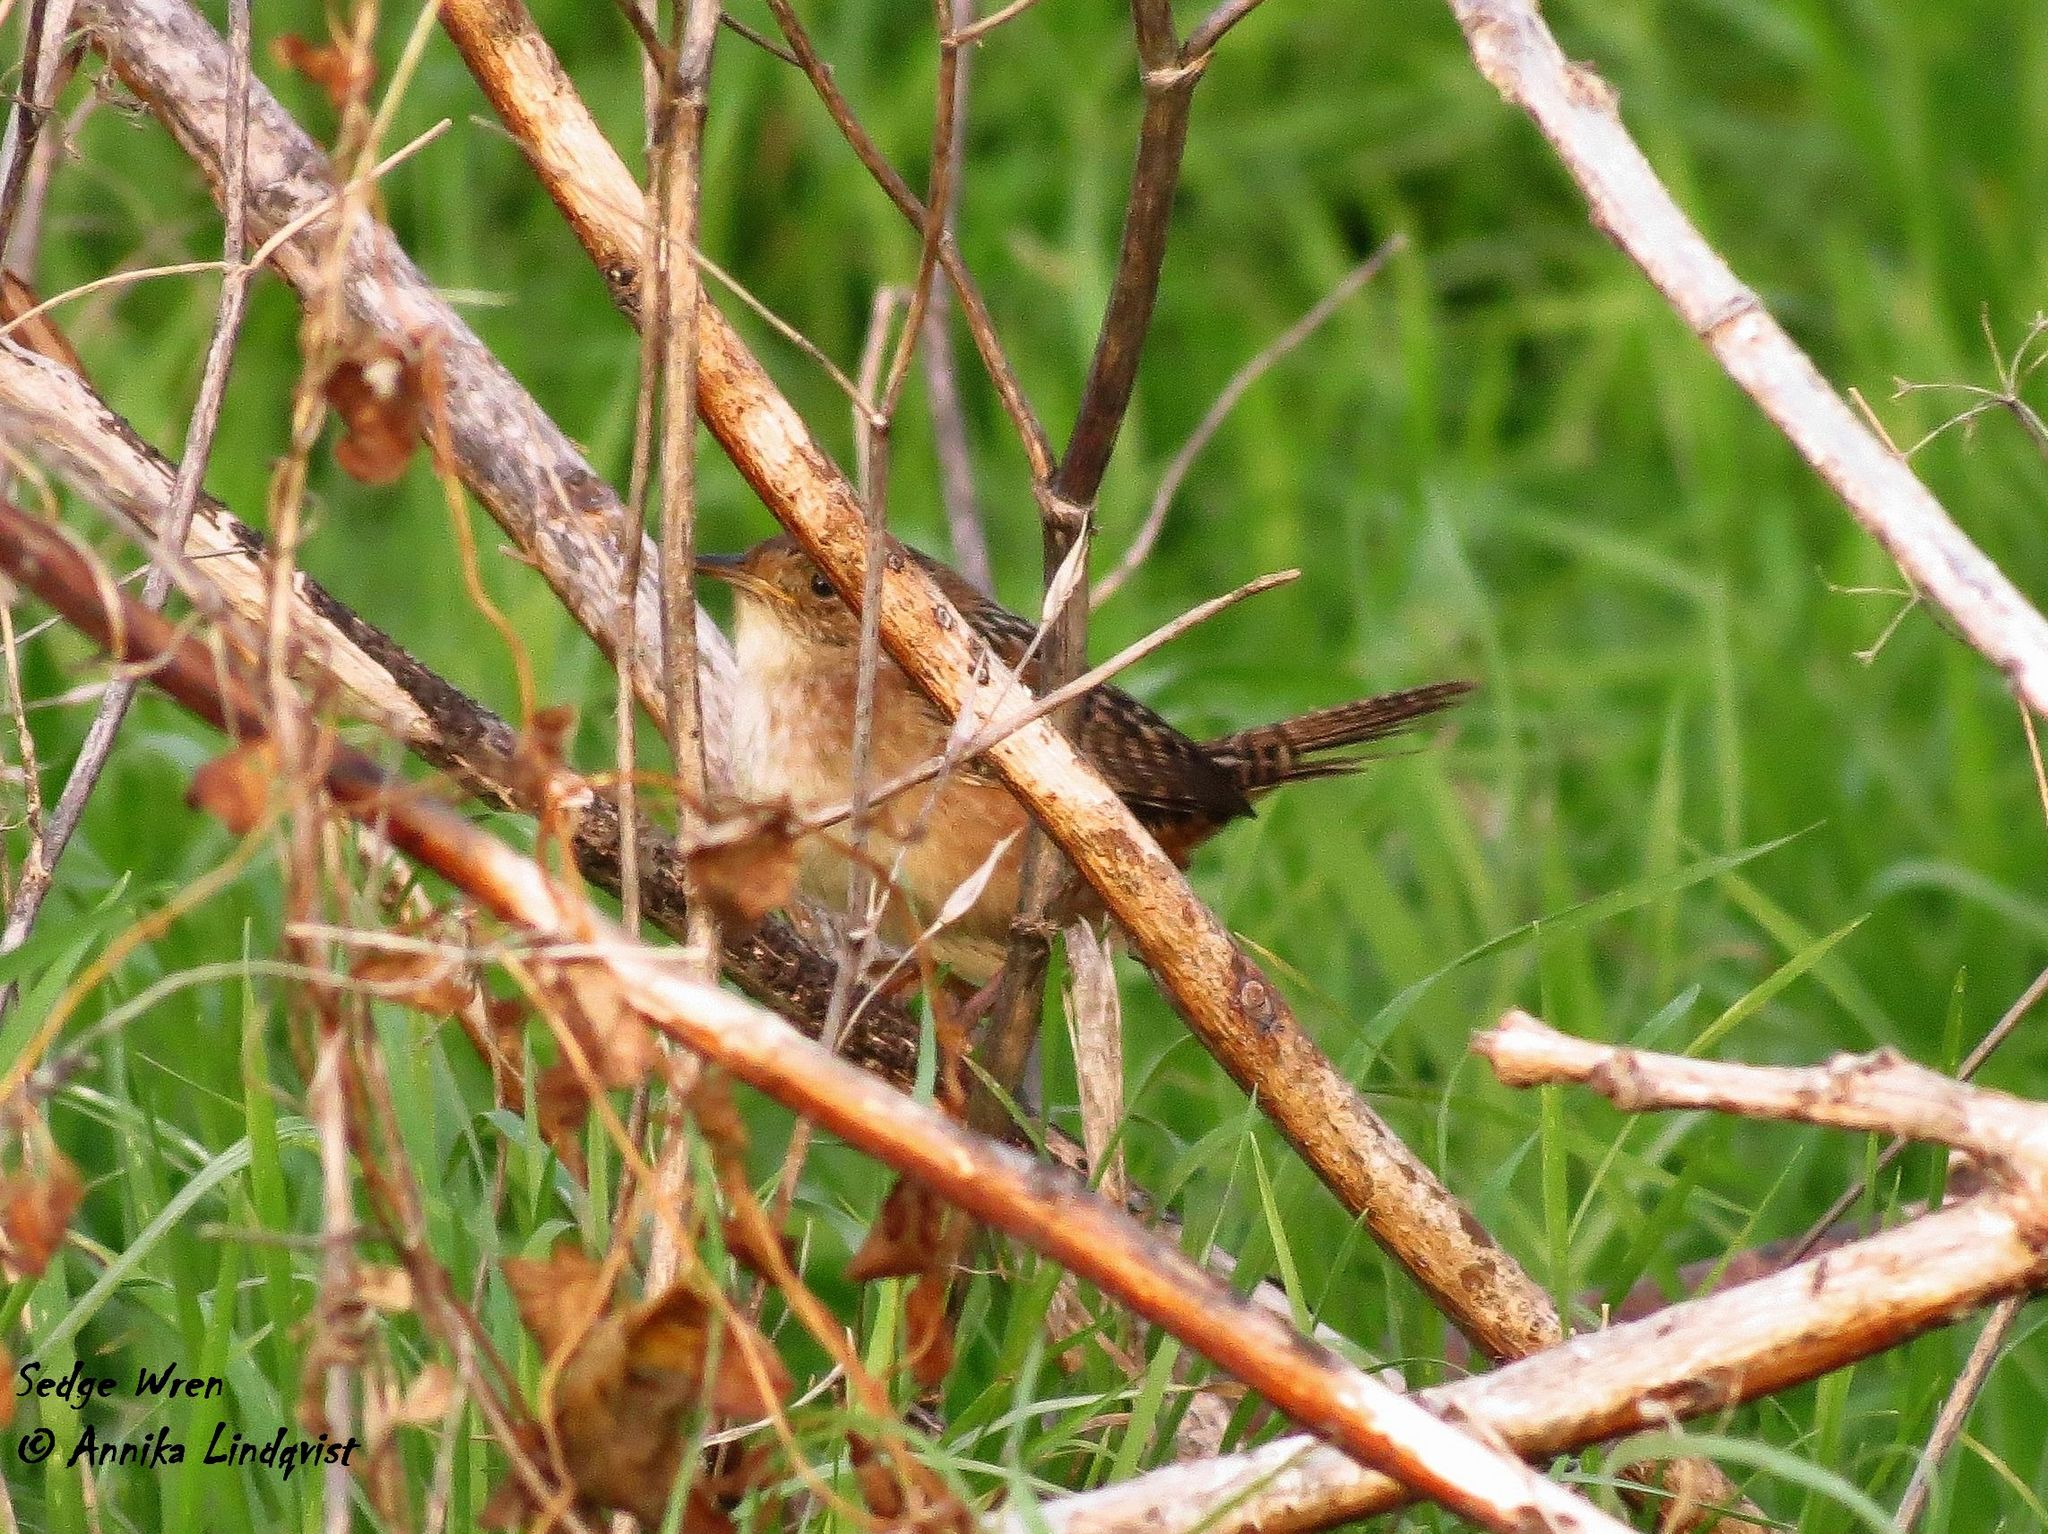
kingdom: Animalia
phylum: Chordata
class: Aves
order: Passeriformes
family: Troglodytidae
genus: Cistothorus
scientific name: Cistothorus platensis
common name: Sedge wren
